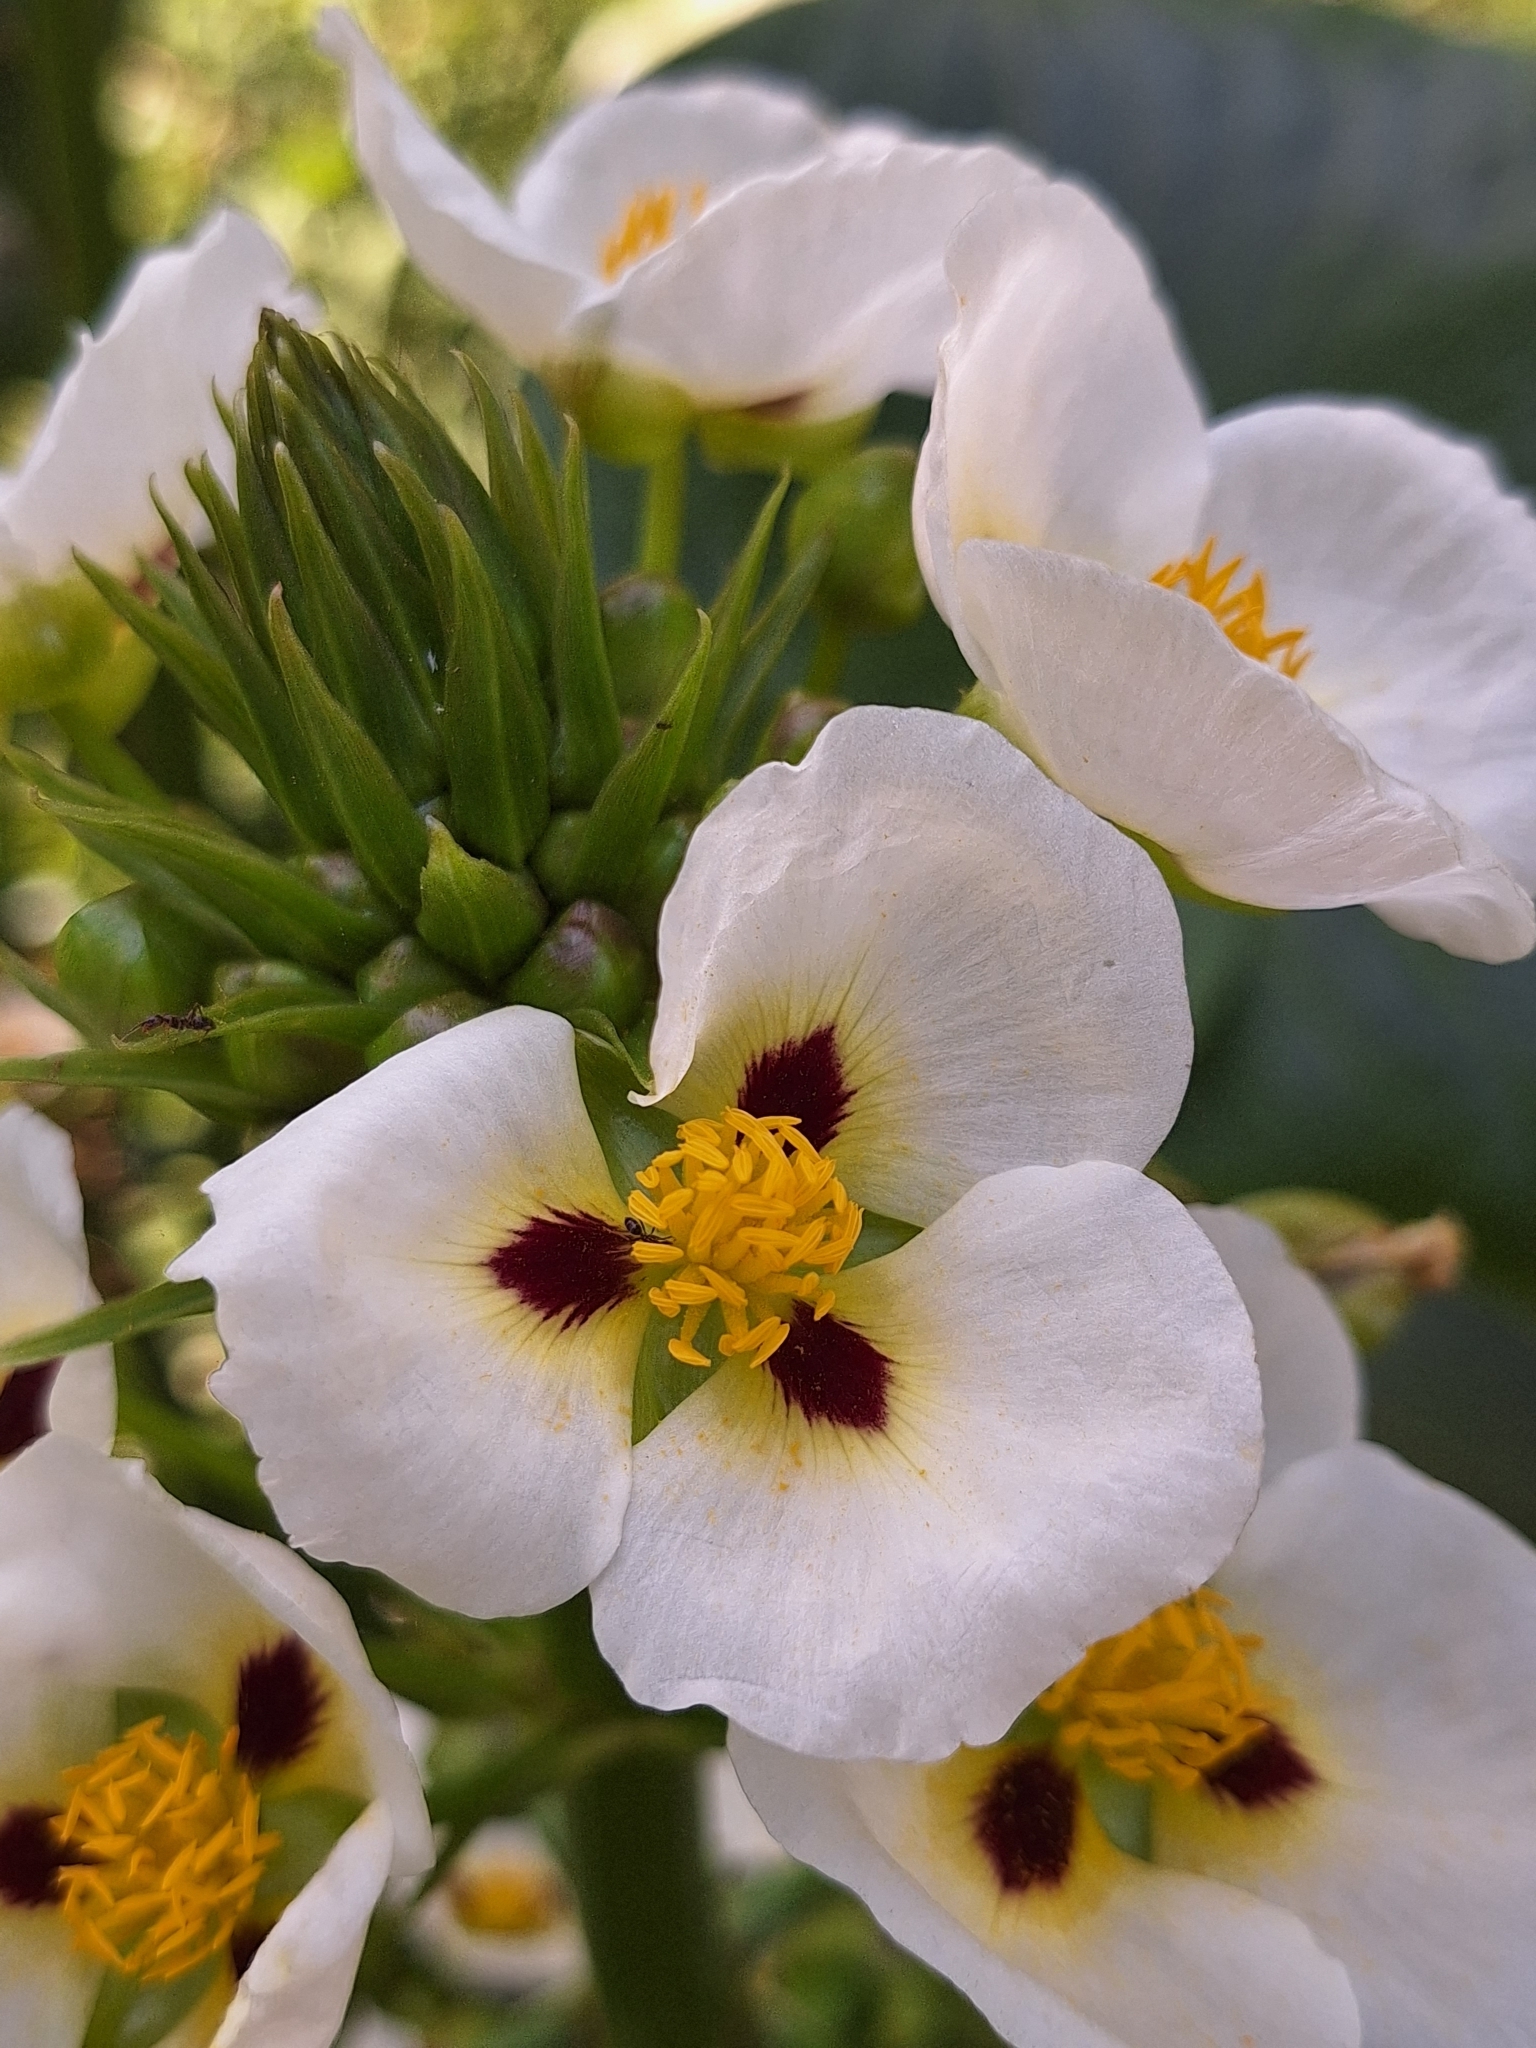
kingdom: Plantae
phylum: Tracheophyta
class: Liliopsida
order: Alismatales
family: Alismataceae
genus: Sagittaria
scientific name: Sagittaria montevidensis
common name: Giant arrowhead
